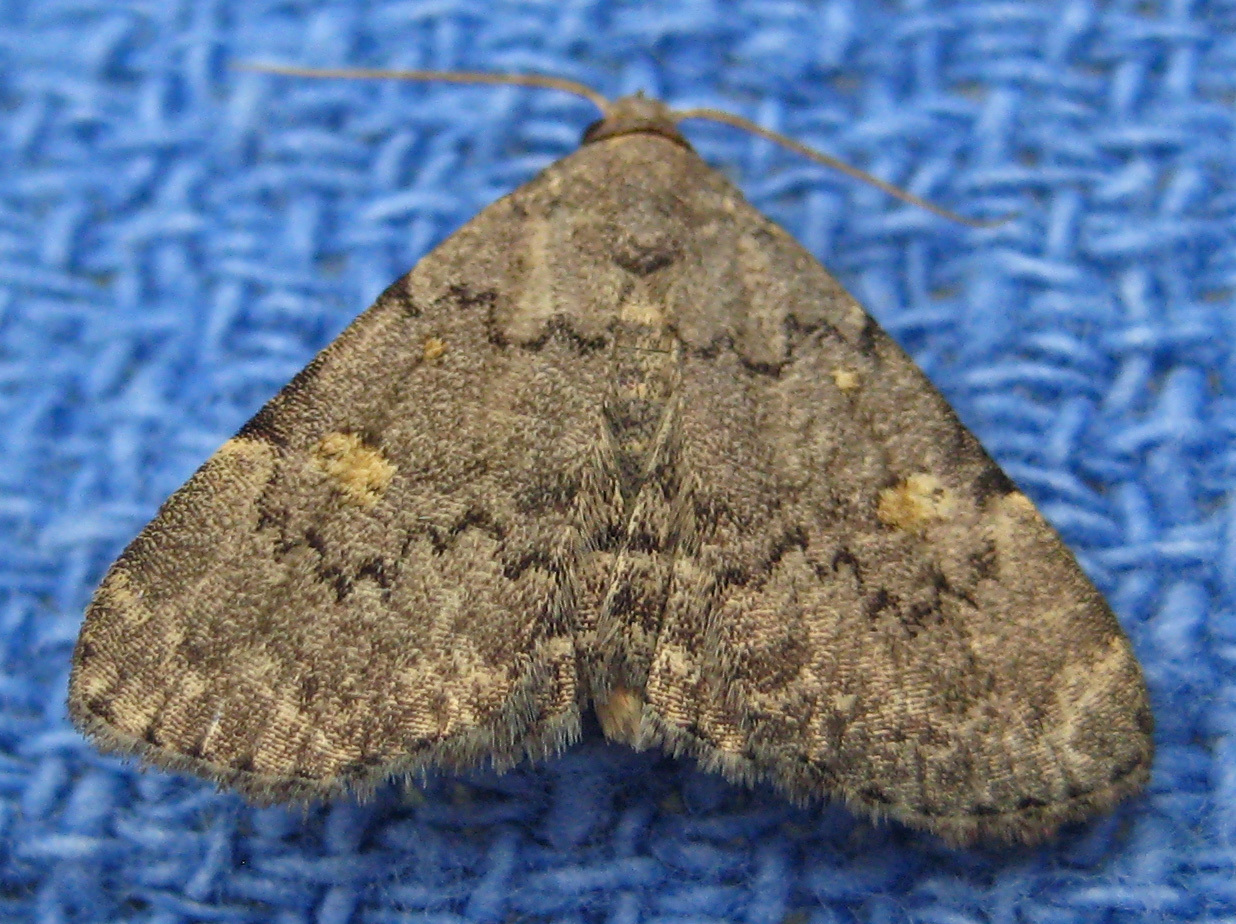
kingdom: Animalia
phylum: Arthropoda
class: Insecta
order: Lepidoptera
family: Erebidae
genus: Idia
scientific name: Idia aemula
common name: Common idia moth
